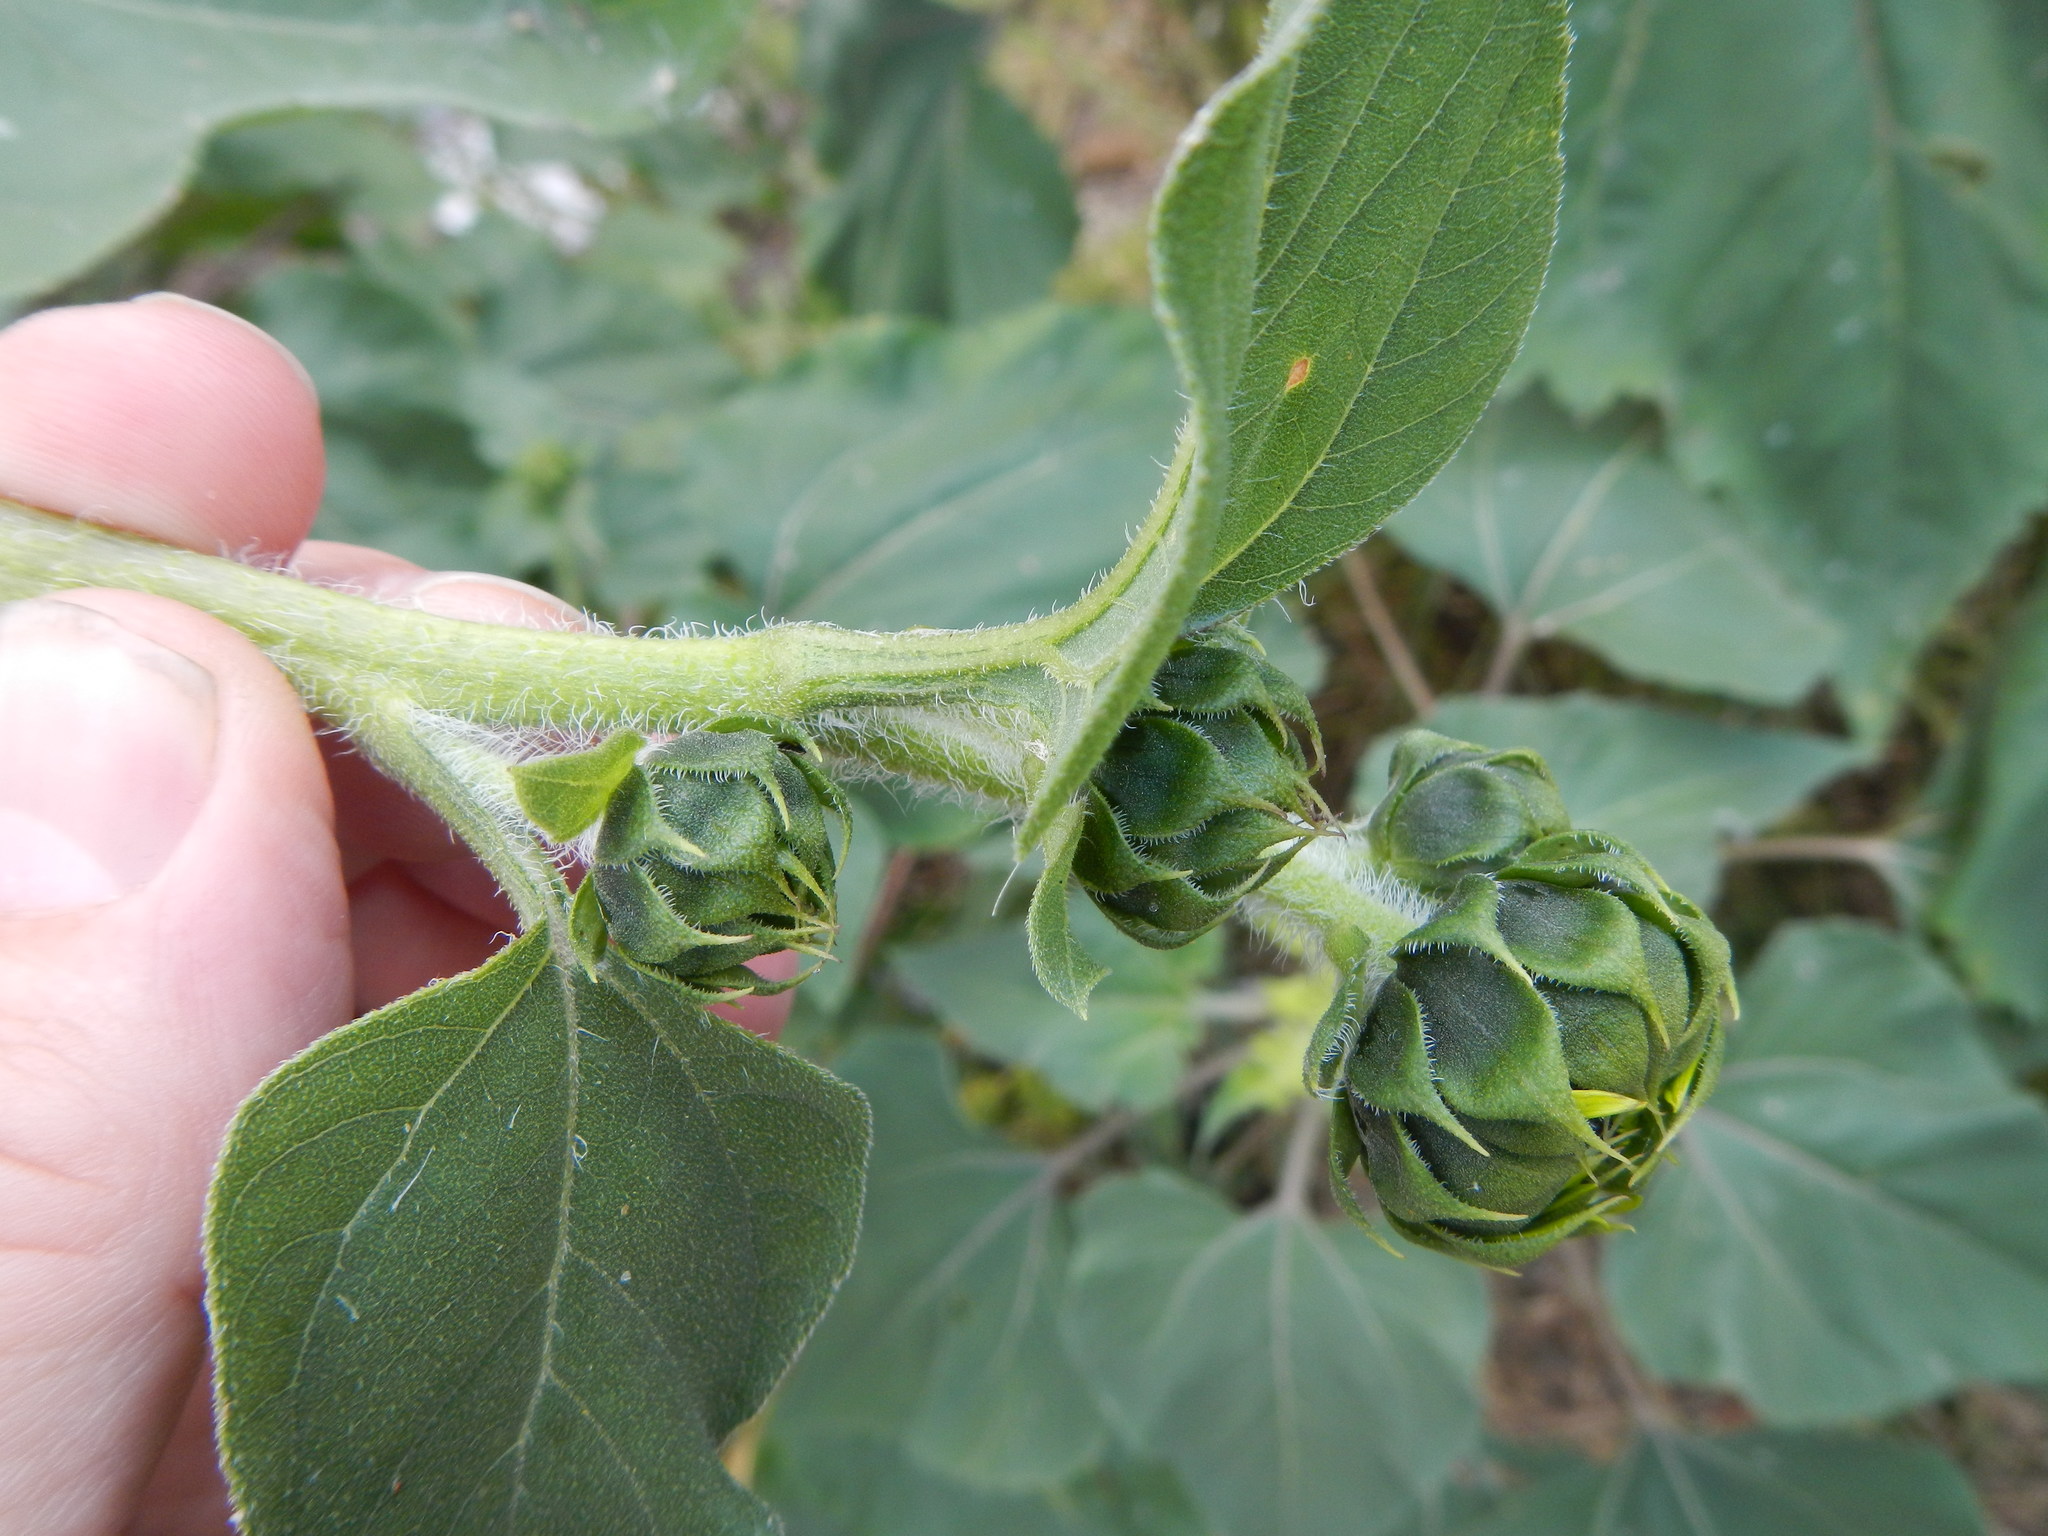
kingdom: Plantae
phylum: Tracheophyta
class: Magnoliopsida
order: Asterales
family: Asteraceae
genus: Helianthus
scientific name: Helianthus annuus
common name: Sunflower
